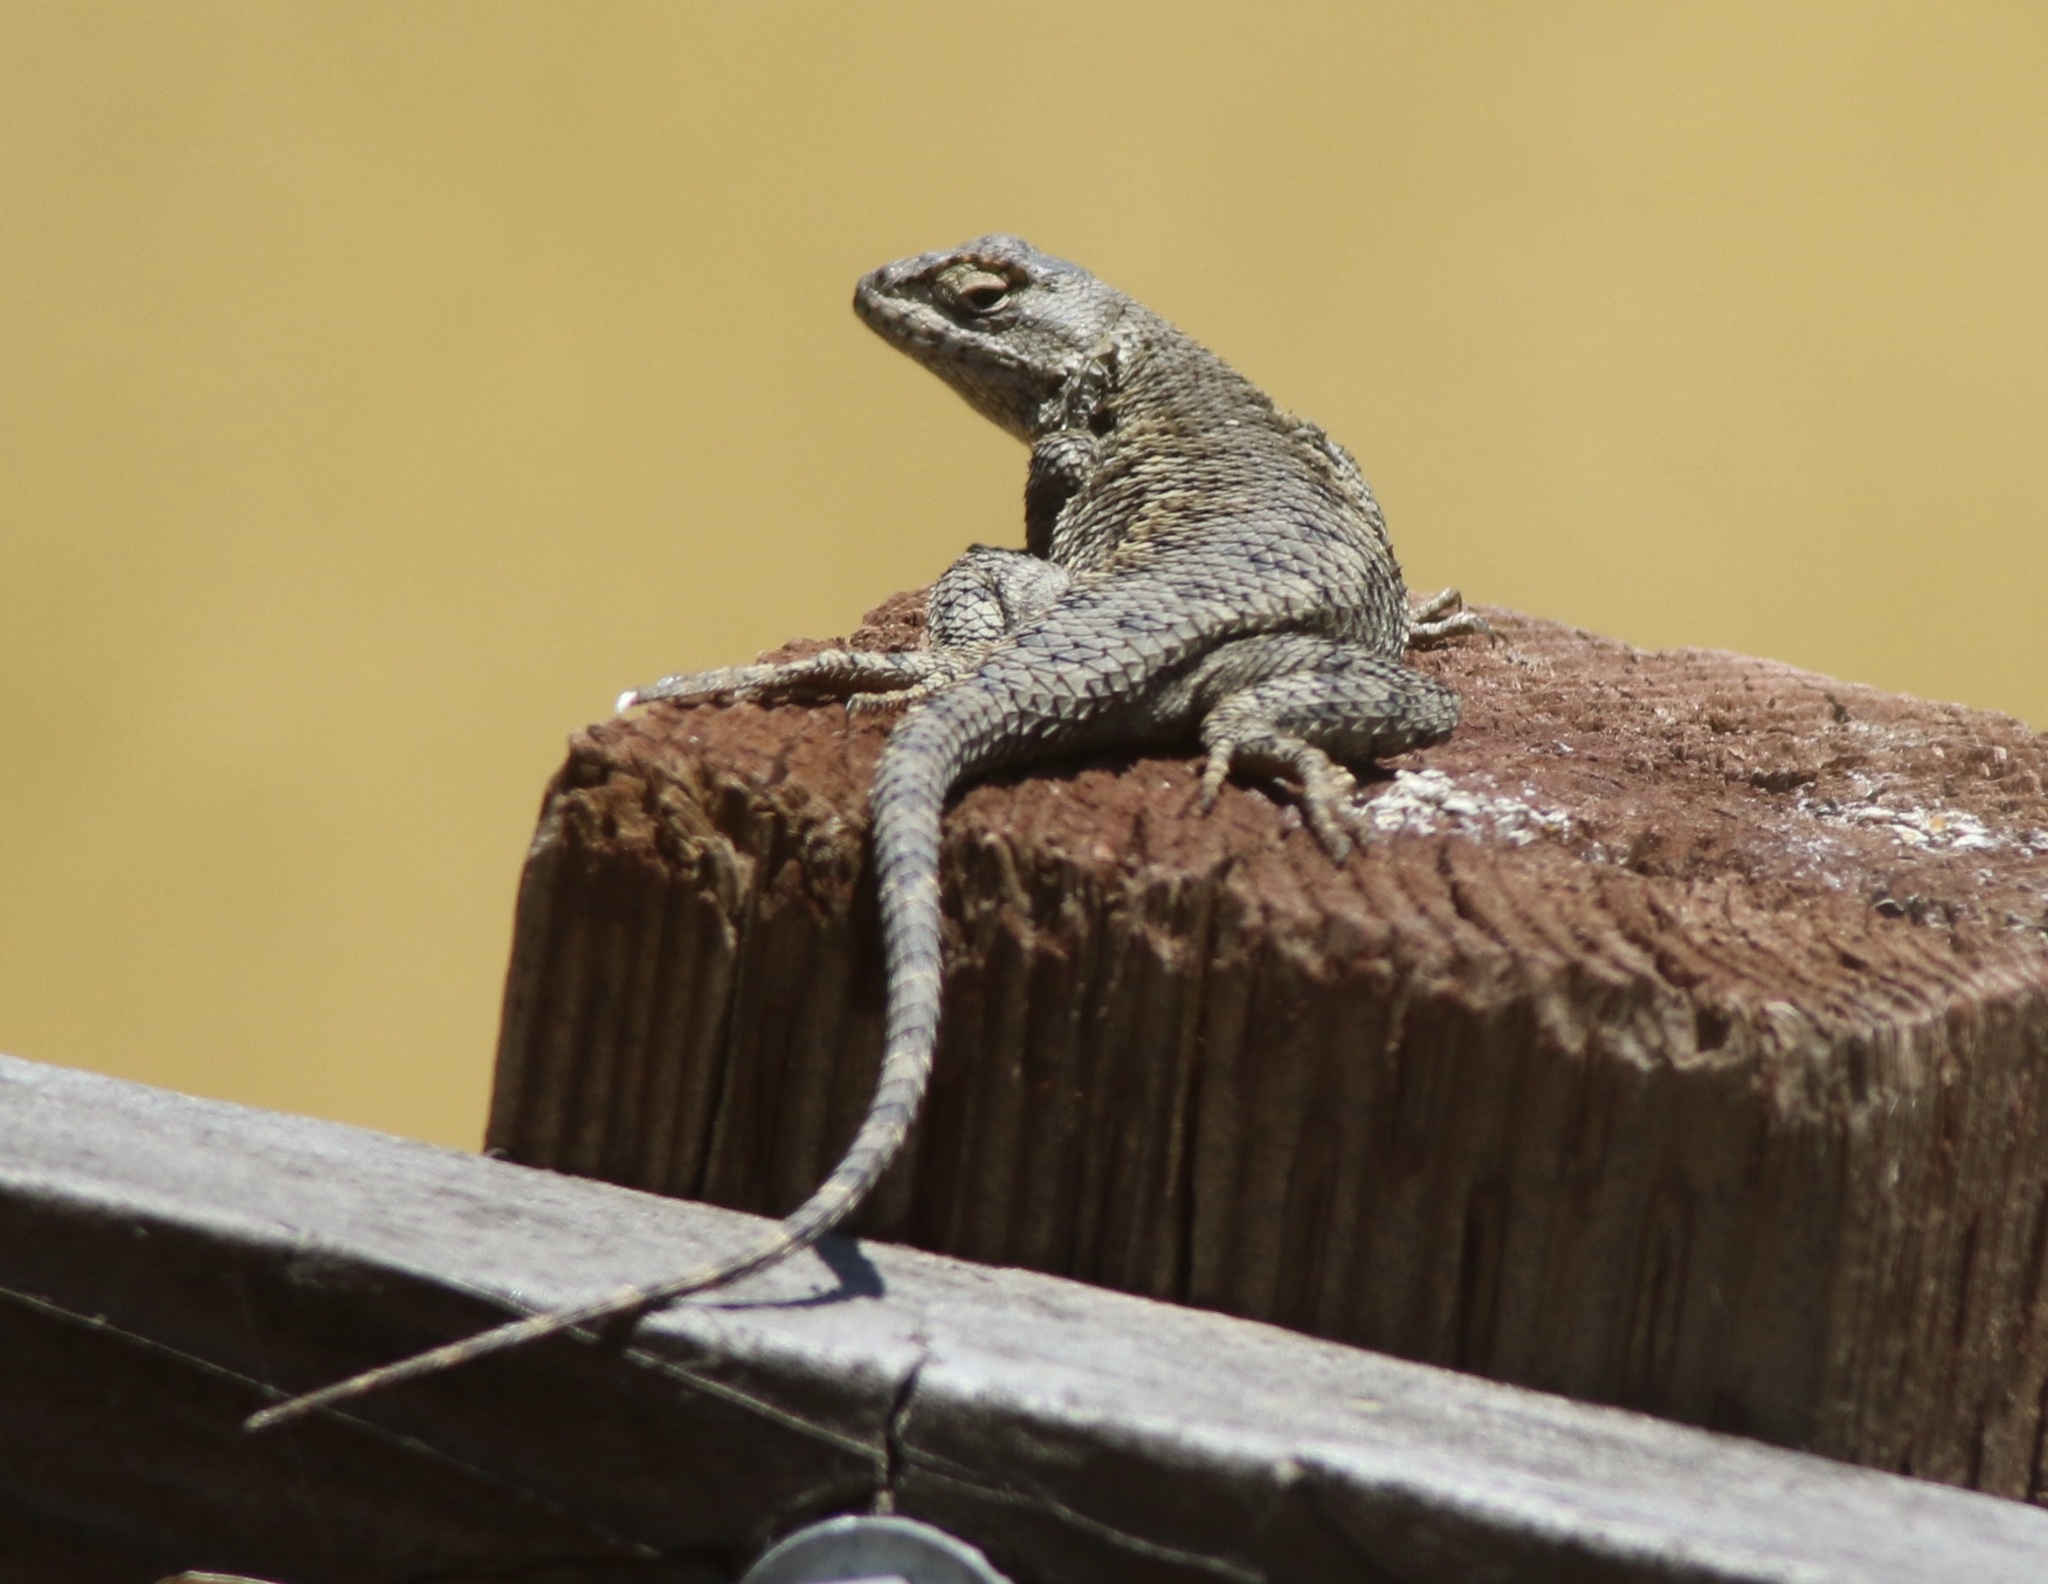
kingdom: Animalia
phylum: Chordata
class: Squamata
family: Phrynosomatidae
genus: Sceloporus
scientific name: Sceloporus occidentalis
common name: Western fence lizard
